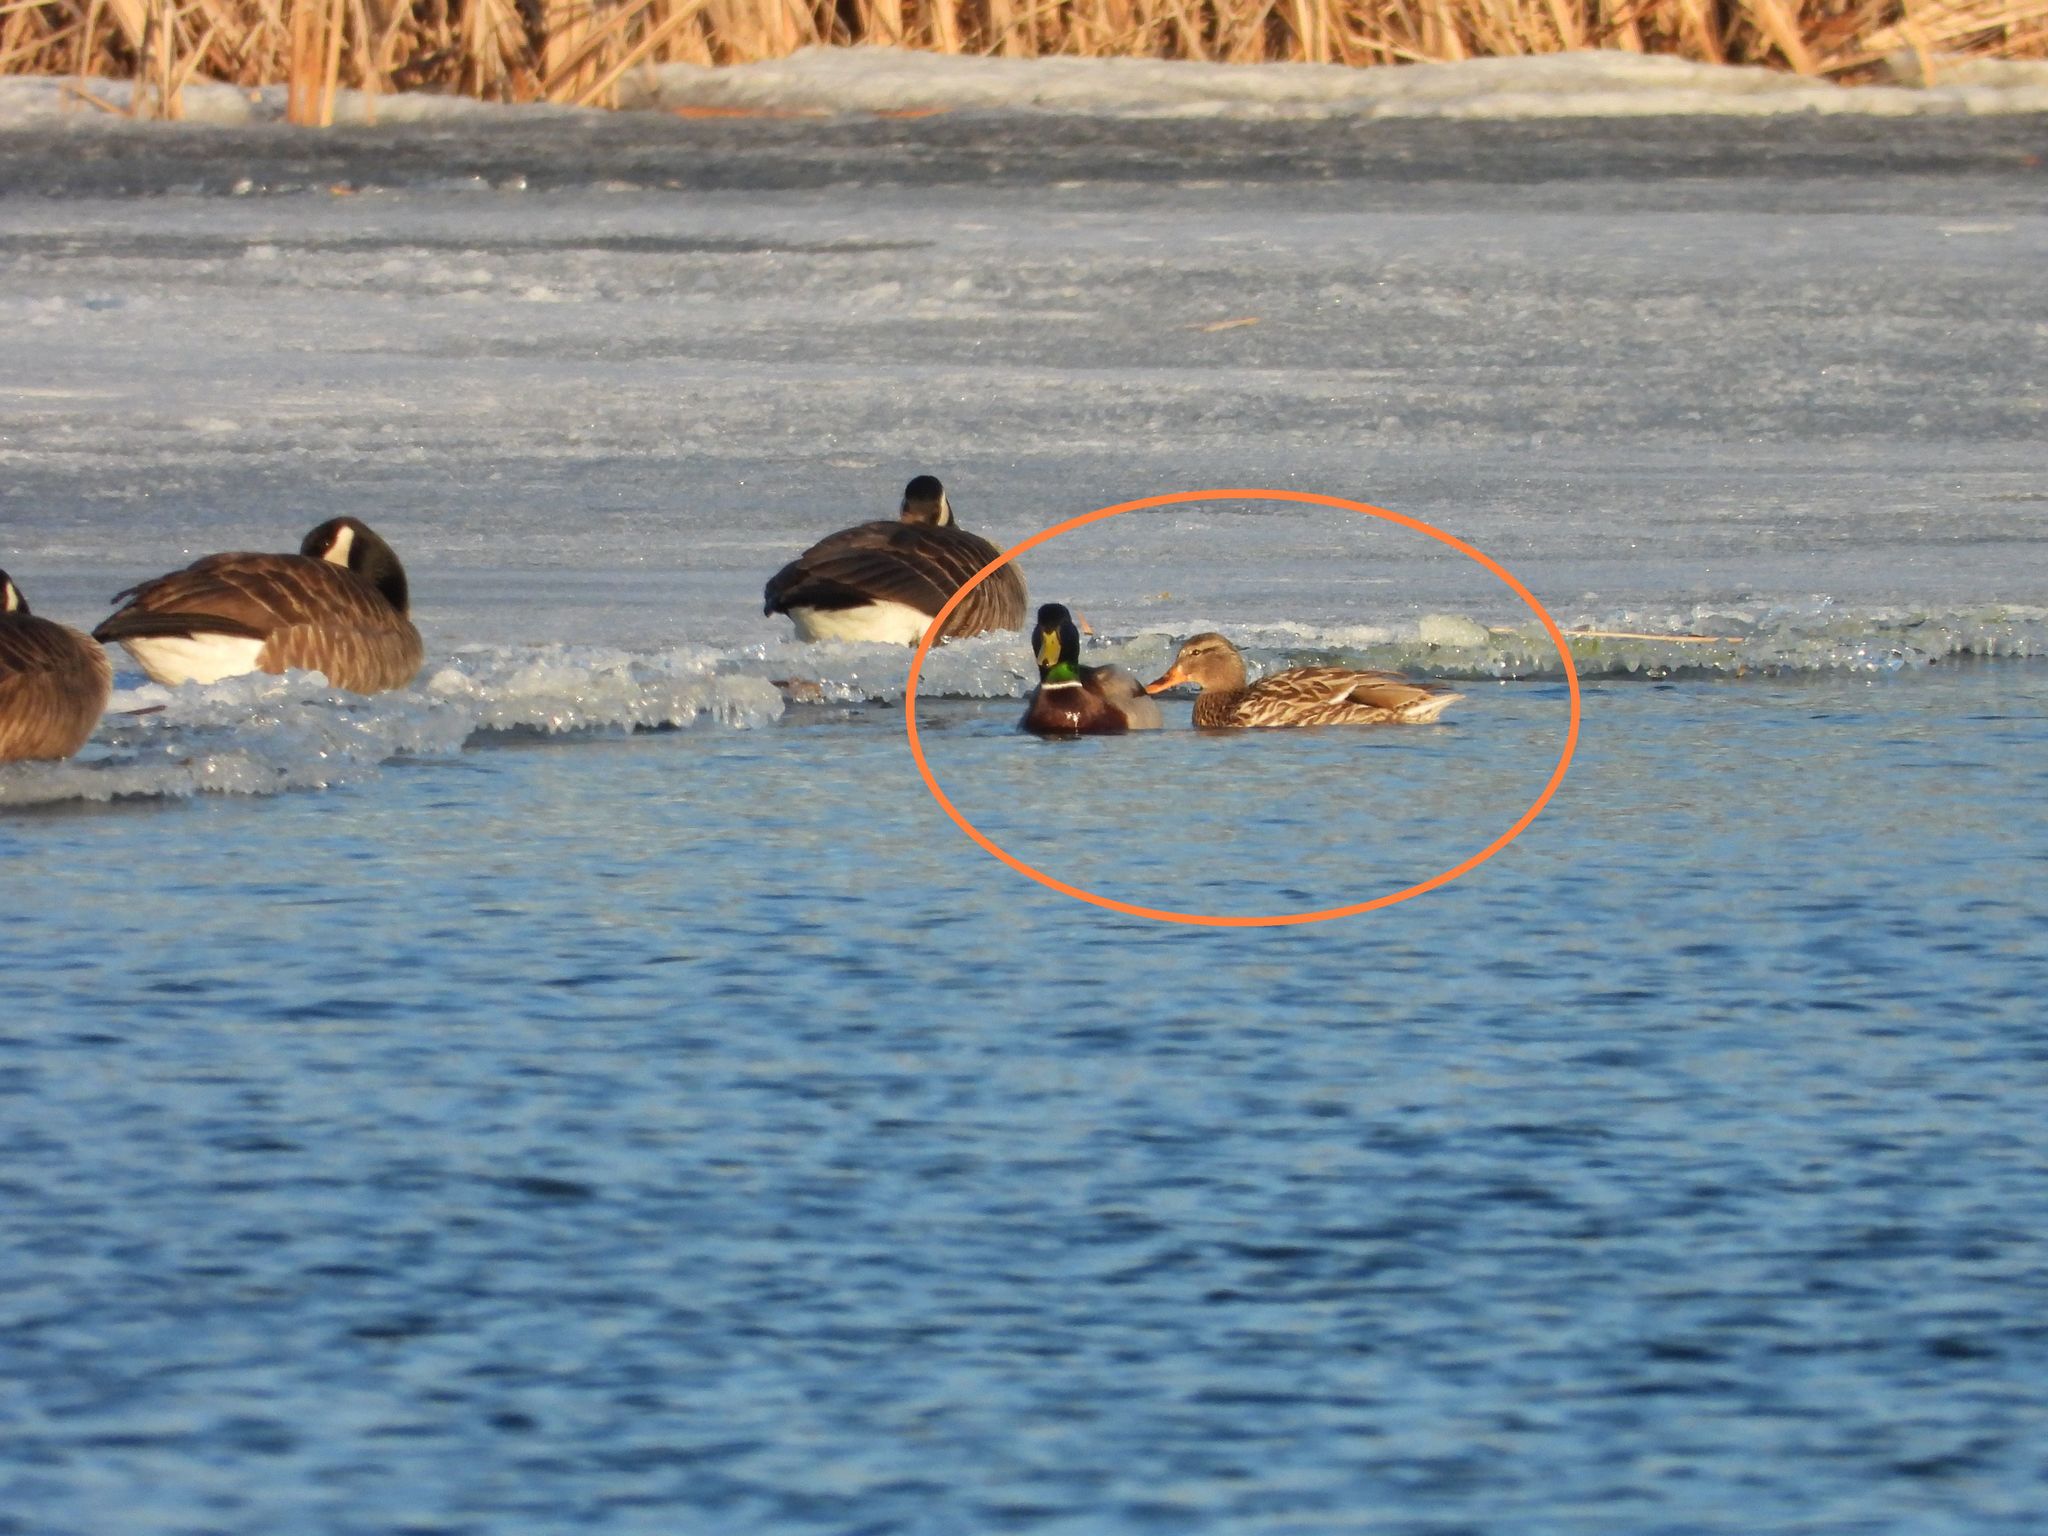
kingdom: Animalia
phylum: Chordata
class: Aves
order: Anseriformes
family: Anatidae
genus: Anas
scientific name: Anas platyrhynchos
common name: Mallard
